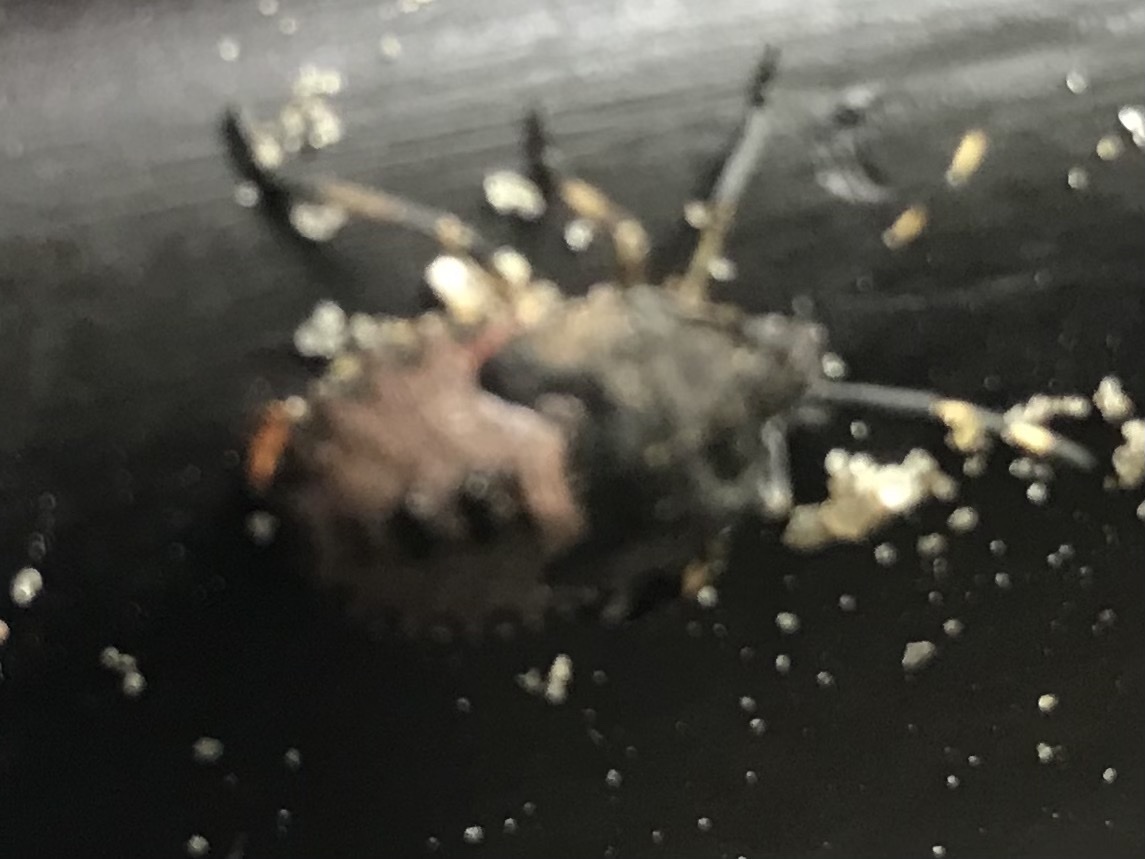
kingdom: Animalia
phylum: Arthropoda
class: Insecta
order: Hemiptera
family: Pentatomidae
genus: Rhaphigaster
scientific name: Rhaphigaster nebulosa
